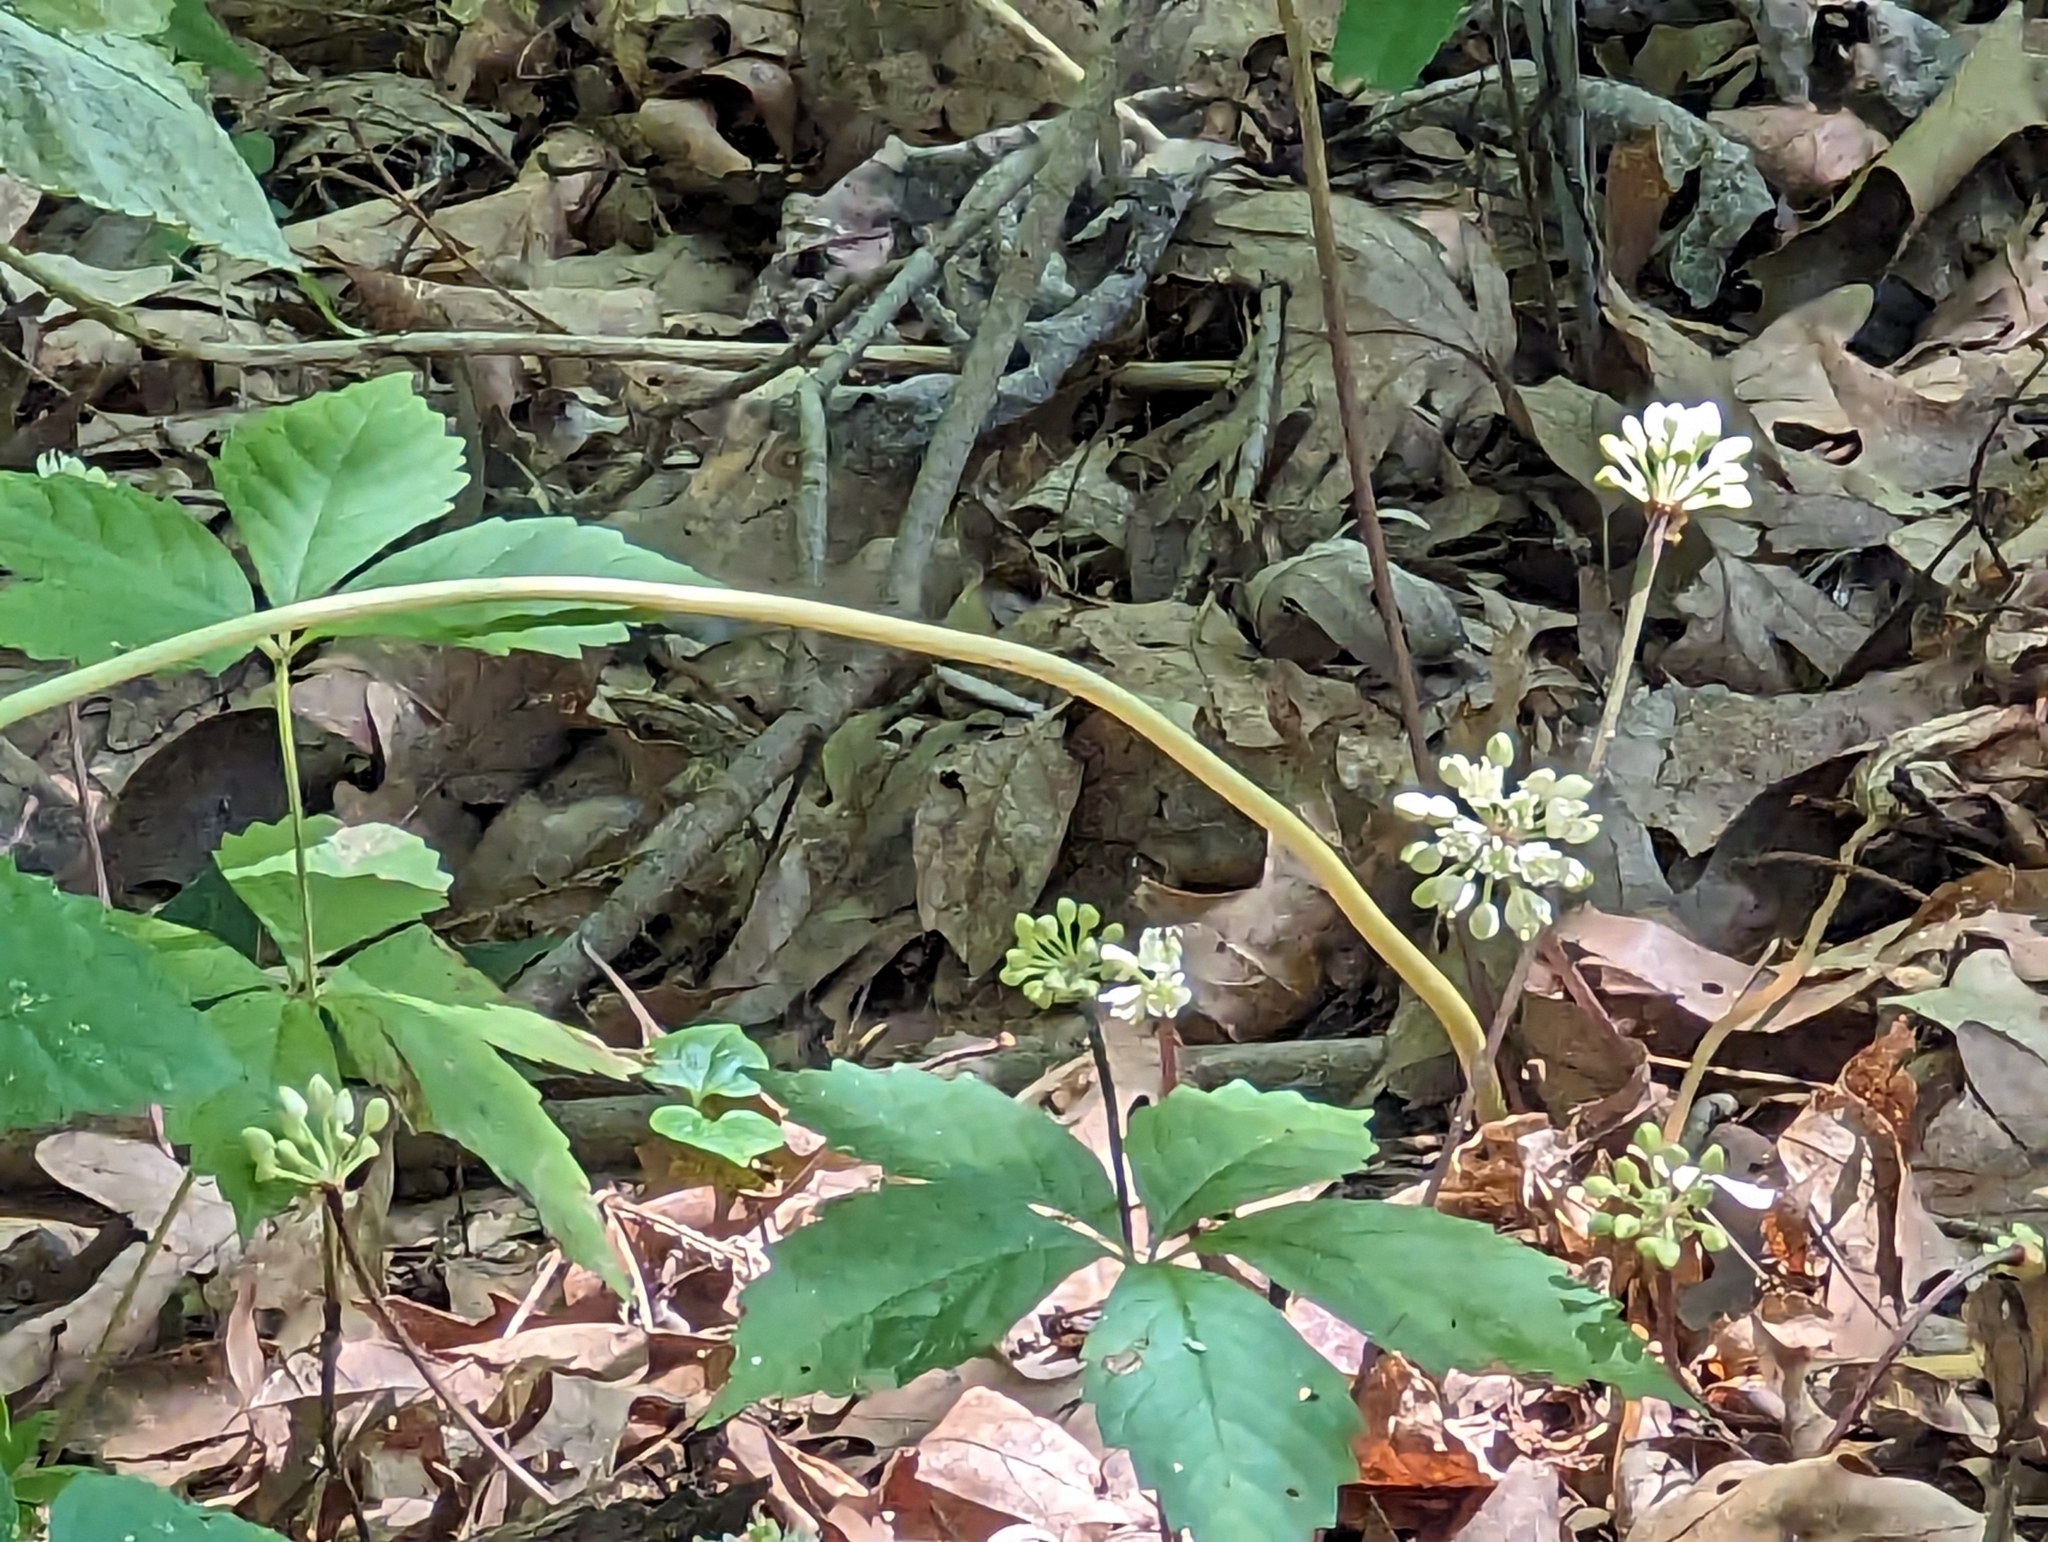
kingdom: Plantae
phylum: Tracheophyta
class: Liliopsida
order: Asparagales
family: Amaryllidaceae
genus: Allium
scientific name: Allium tricoccum
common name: Ramp
